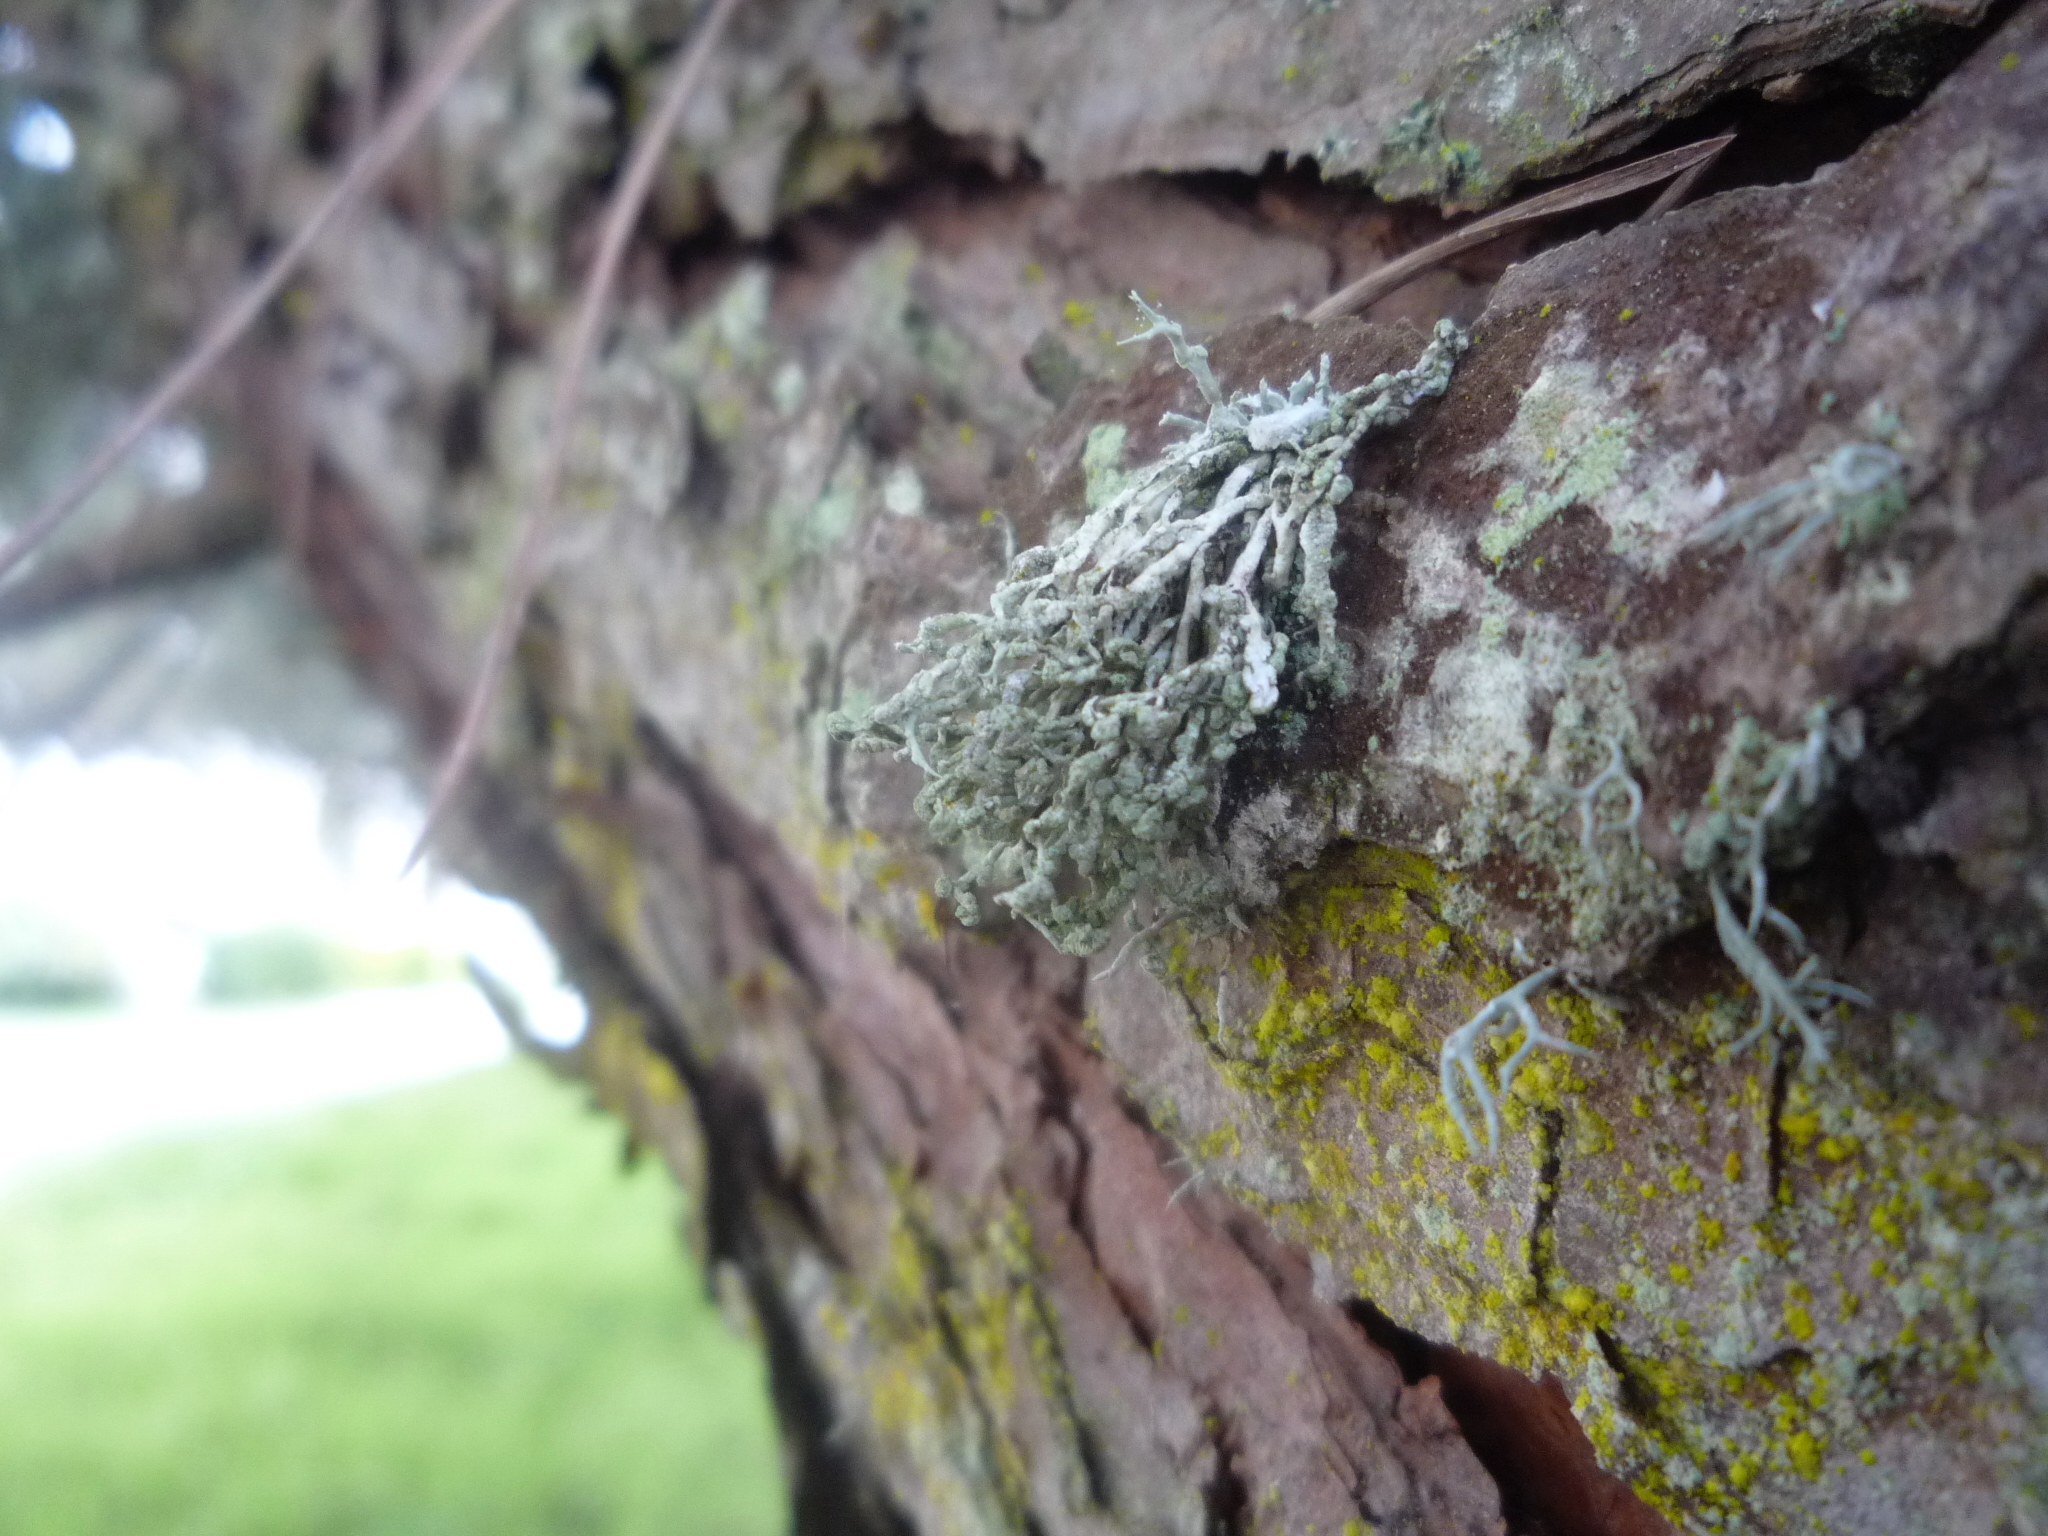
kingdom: Fungi
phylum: Ascomycota
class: Lecanoromycetes
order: Lecanorales
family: Ramalinaceae
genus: Niebla
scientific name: Niebla cephalota
